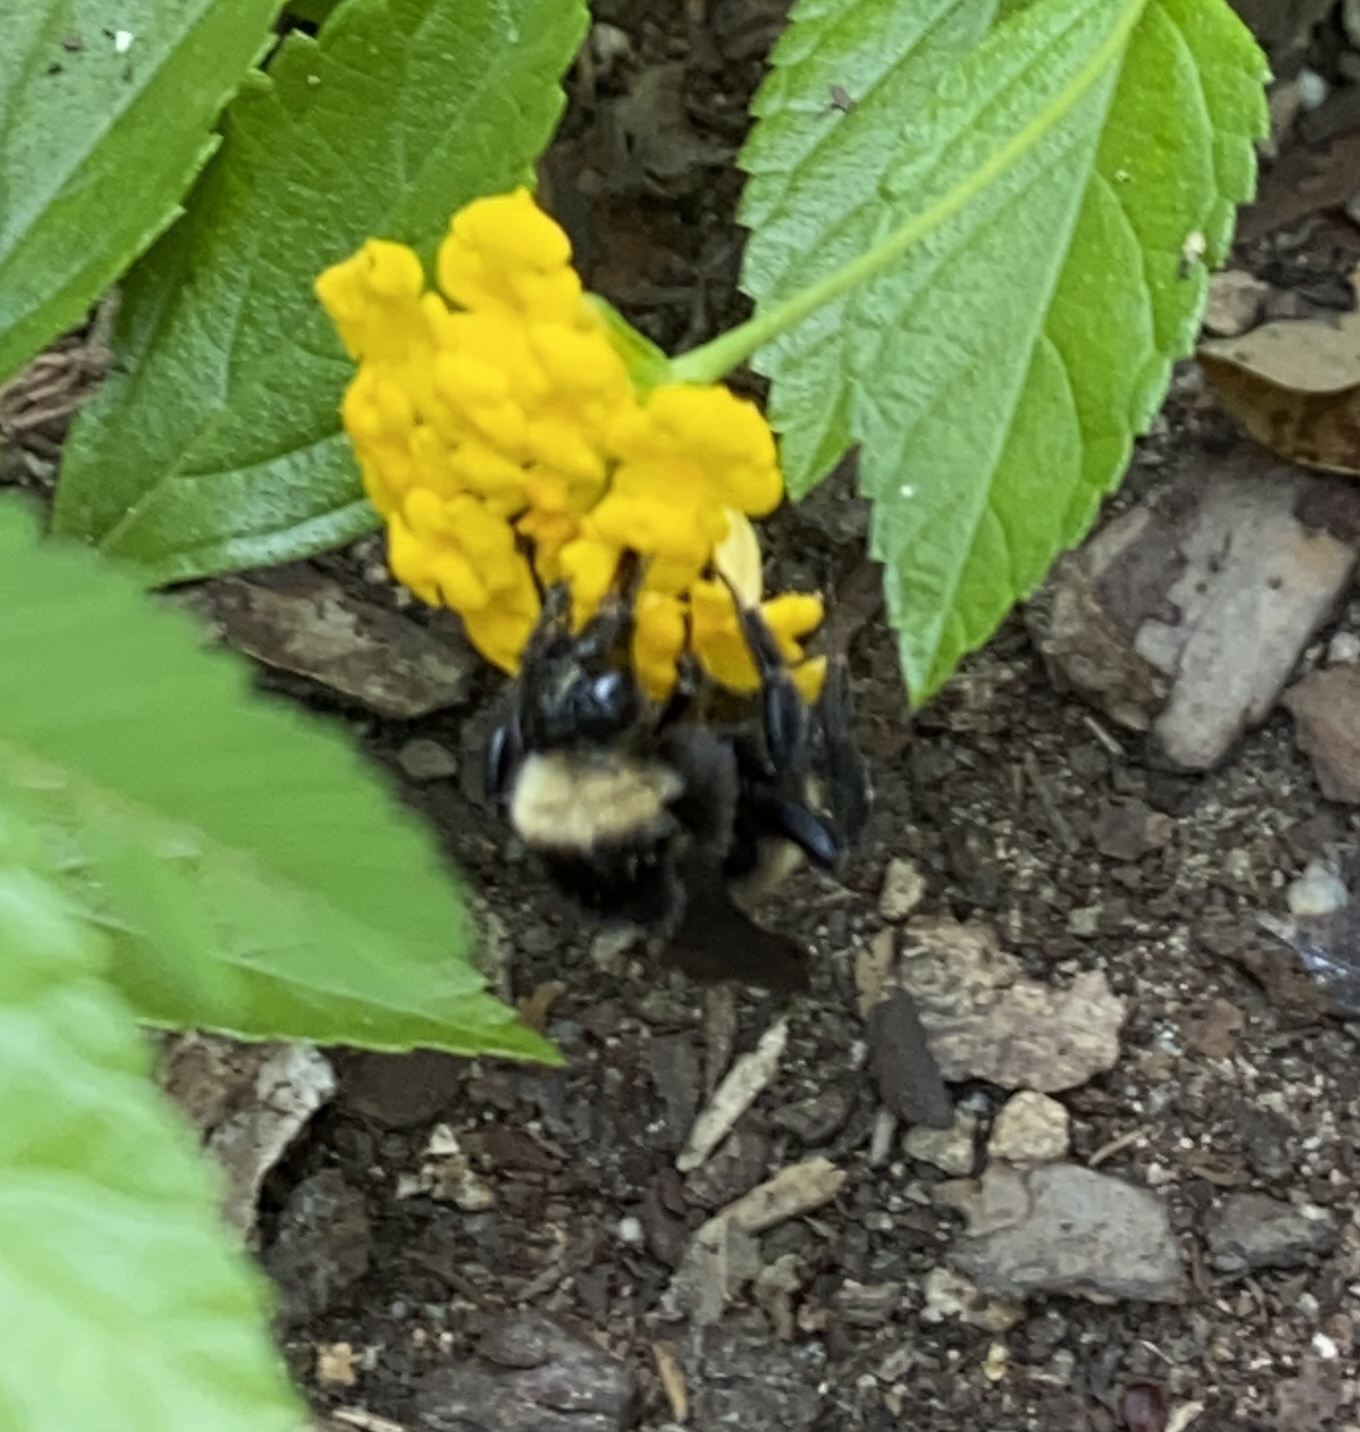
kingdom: Animalia
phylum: Arthropoda
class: Insecta
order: Hymenoptera
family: Apidae
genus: Bombus
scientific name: Bombus pensylvanicus
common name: Bumble bee
